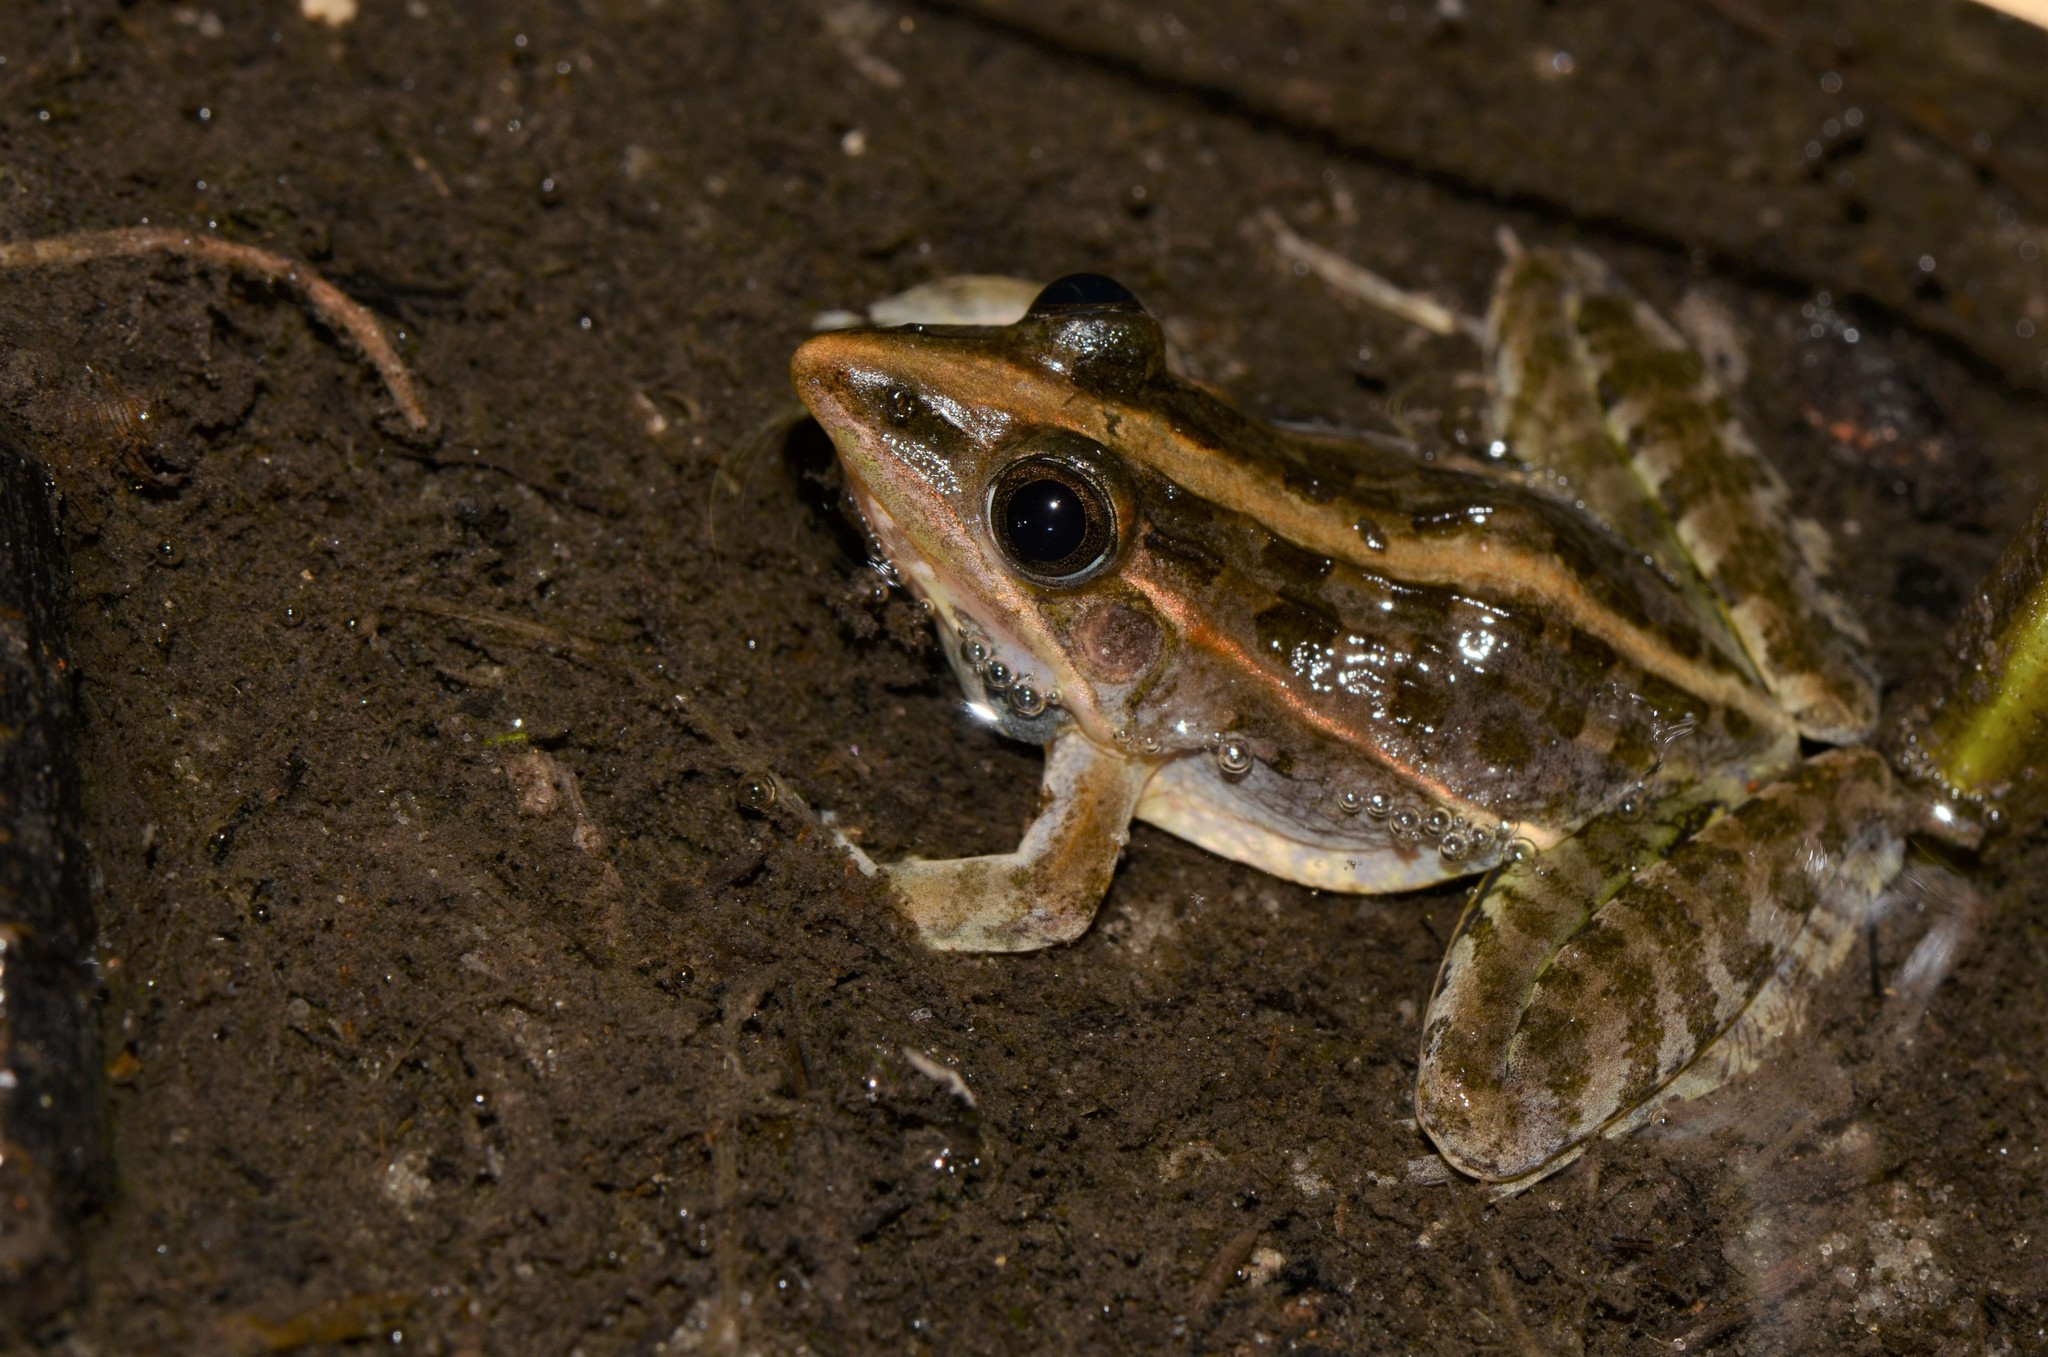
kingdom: Animalia
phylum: Chordata
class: Amphibia
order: Anura
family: Ptychadenidae
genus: Ptychadena
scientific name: Ptychadena taenioscelis
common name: Lukula grassland frog
